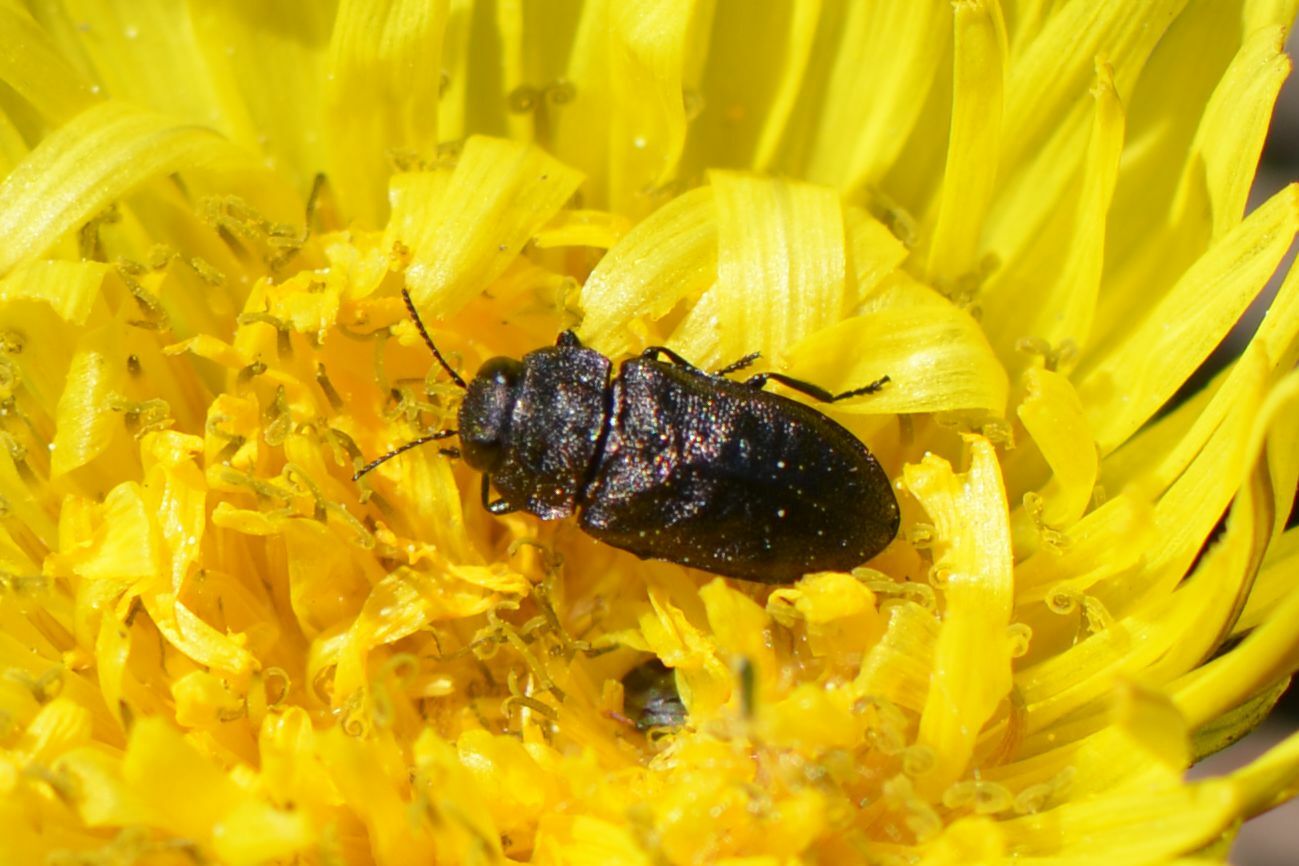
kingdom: Animalia
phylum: Arthropoda
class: Insecta
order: Coleoptera
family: Buprestidae
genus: Anthaxia
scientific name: Anthaxia helvetica
